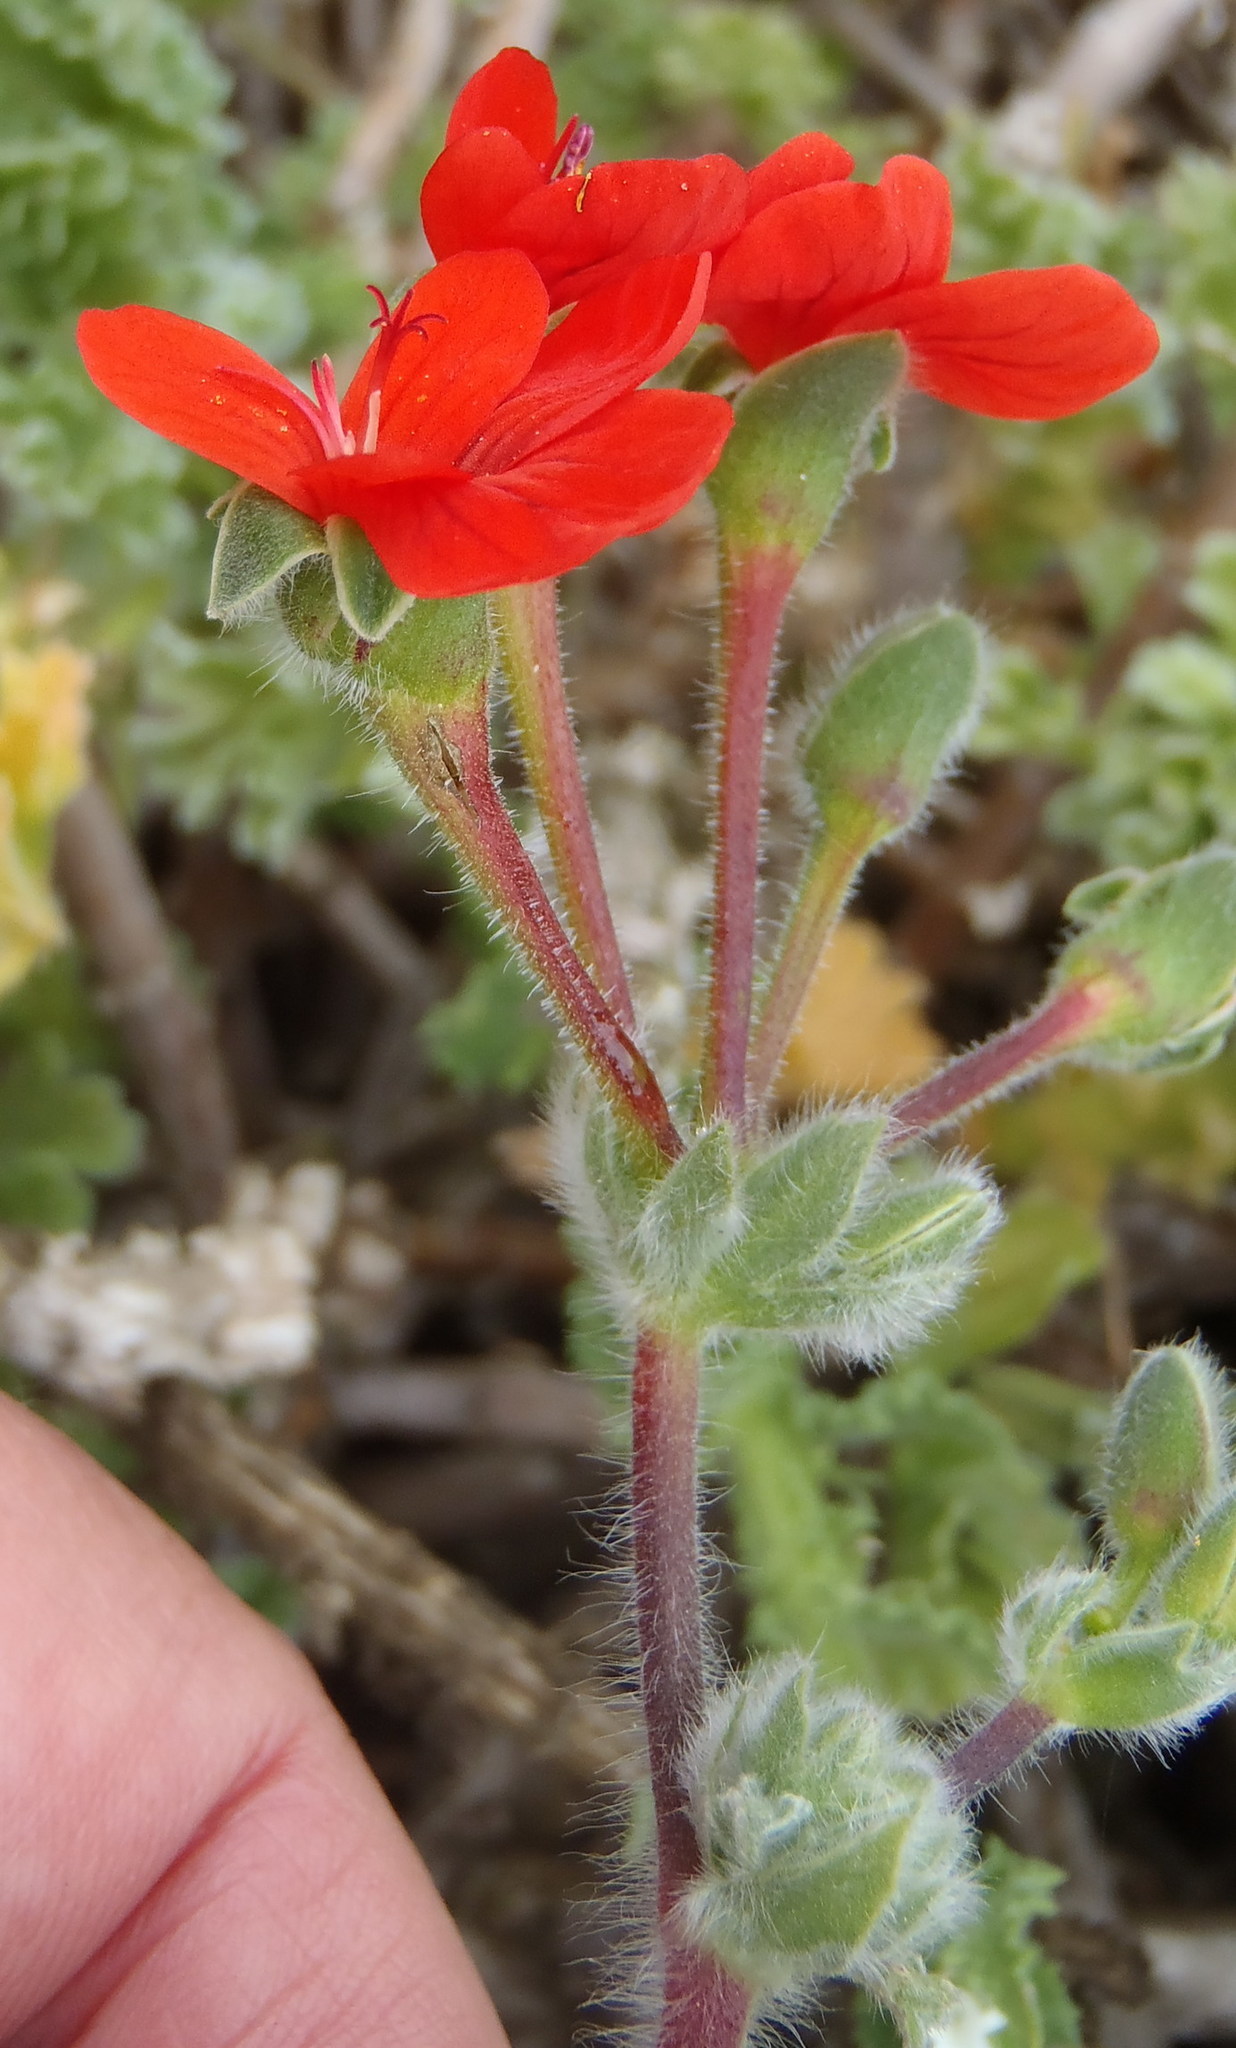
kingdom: Plantae
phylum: Tracheophyta
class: Magnoliopsida
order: Geraniales
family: Geraniaceae
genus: Pelargonium
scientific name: Pelargonium fulgidum
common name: Celandine-leaf pelargonium
